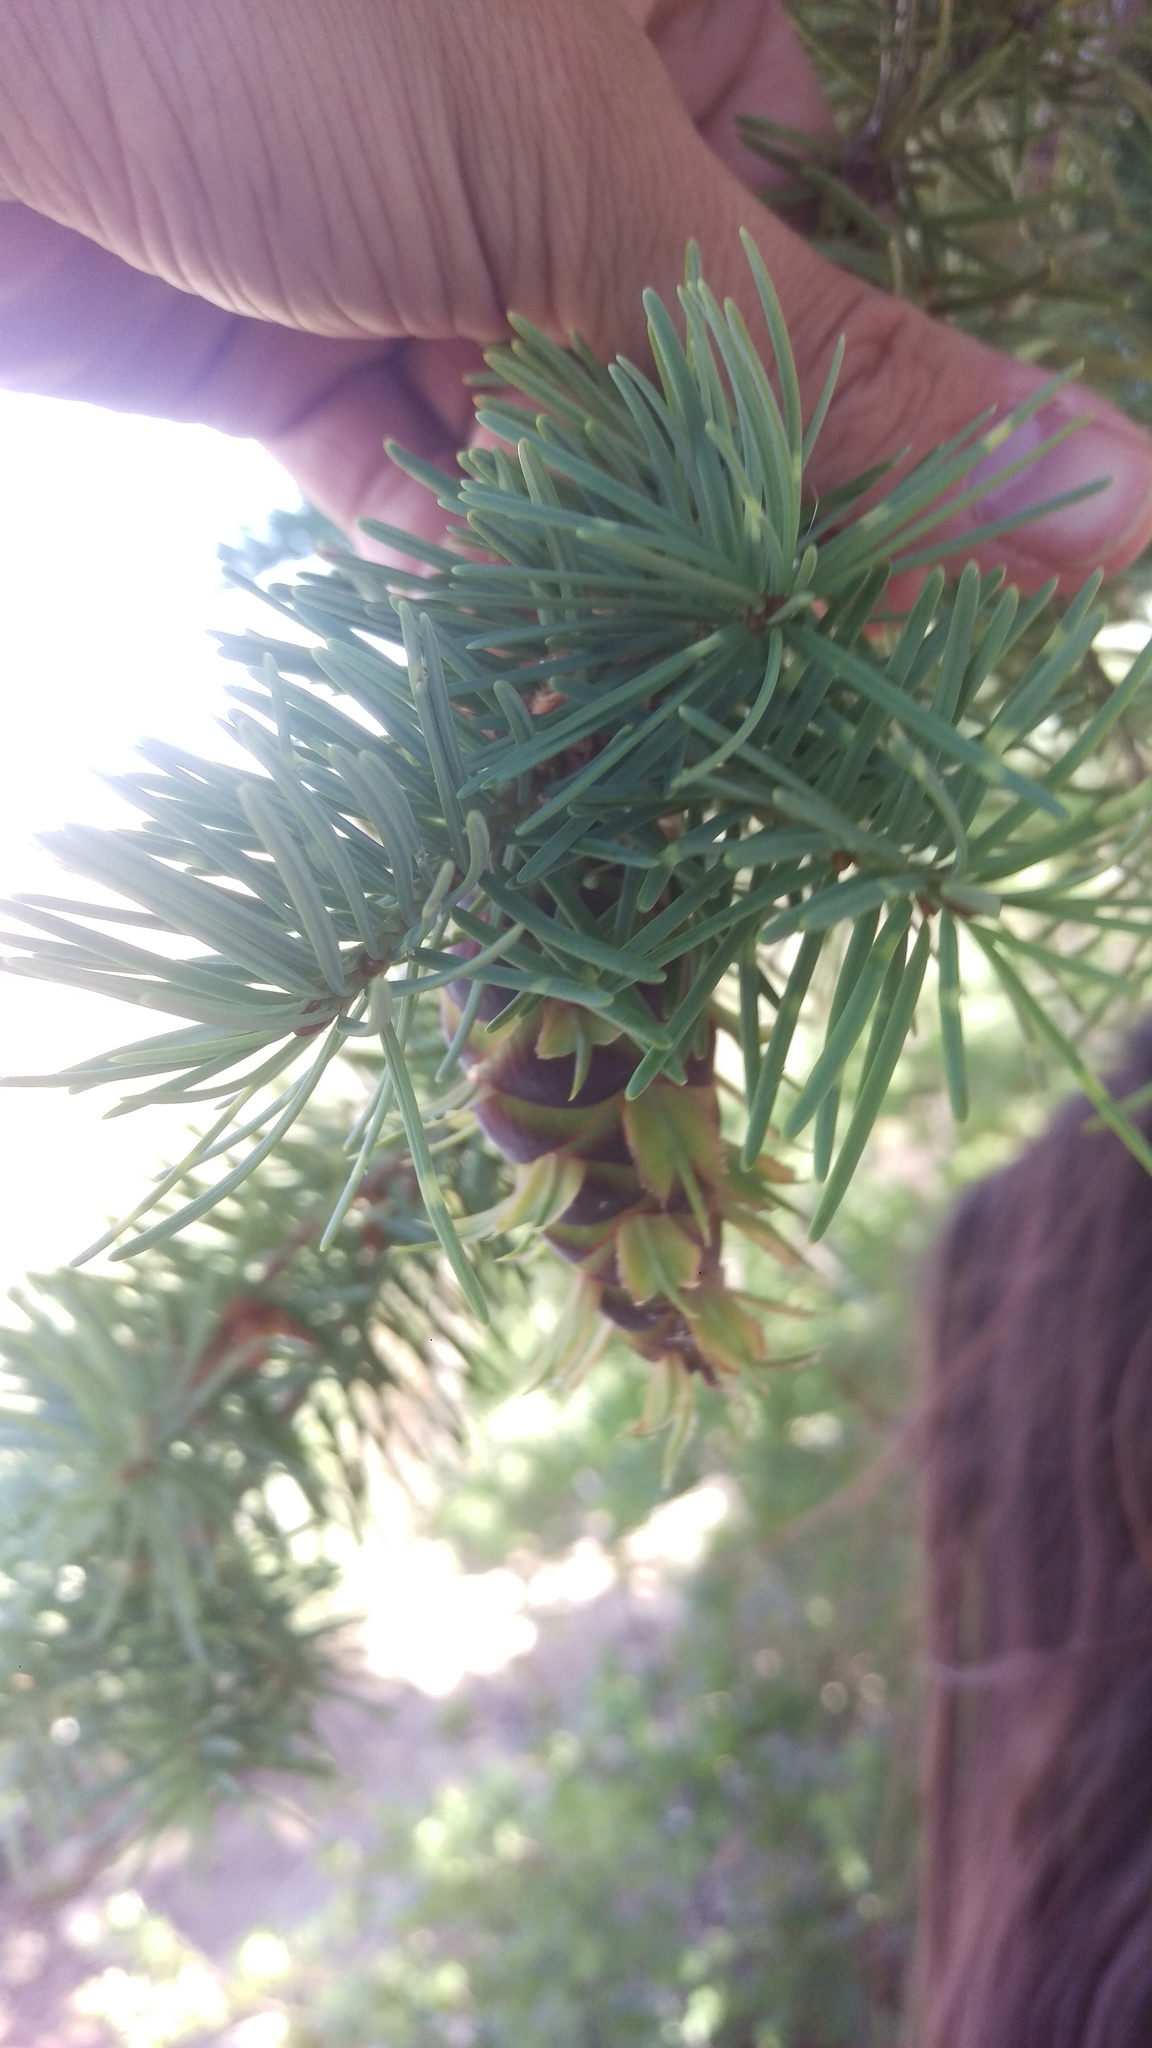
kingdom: Plantae
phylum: Tracheophyta
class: Pinopsida
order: Pinales
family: Pinaceae
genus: Pseudotsuga
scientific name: Pseudotsuga menziesii
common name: Douglas fir
